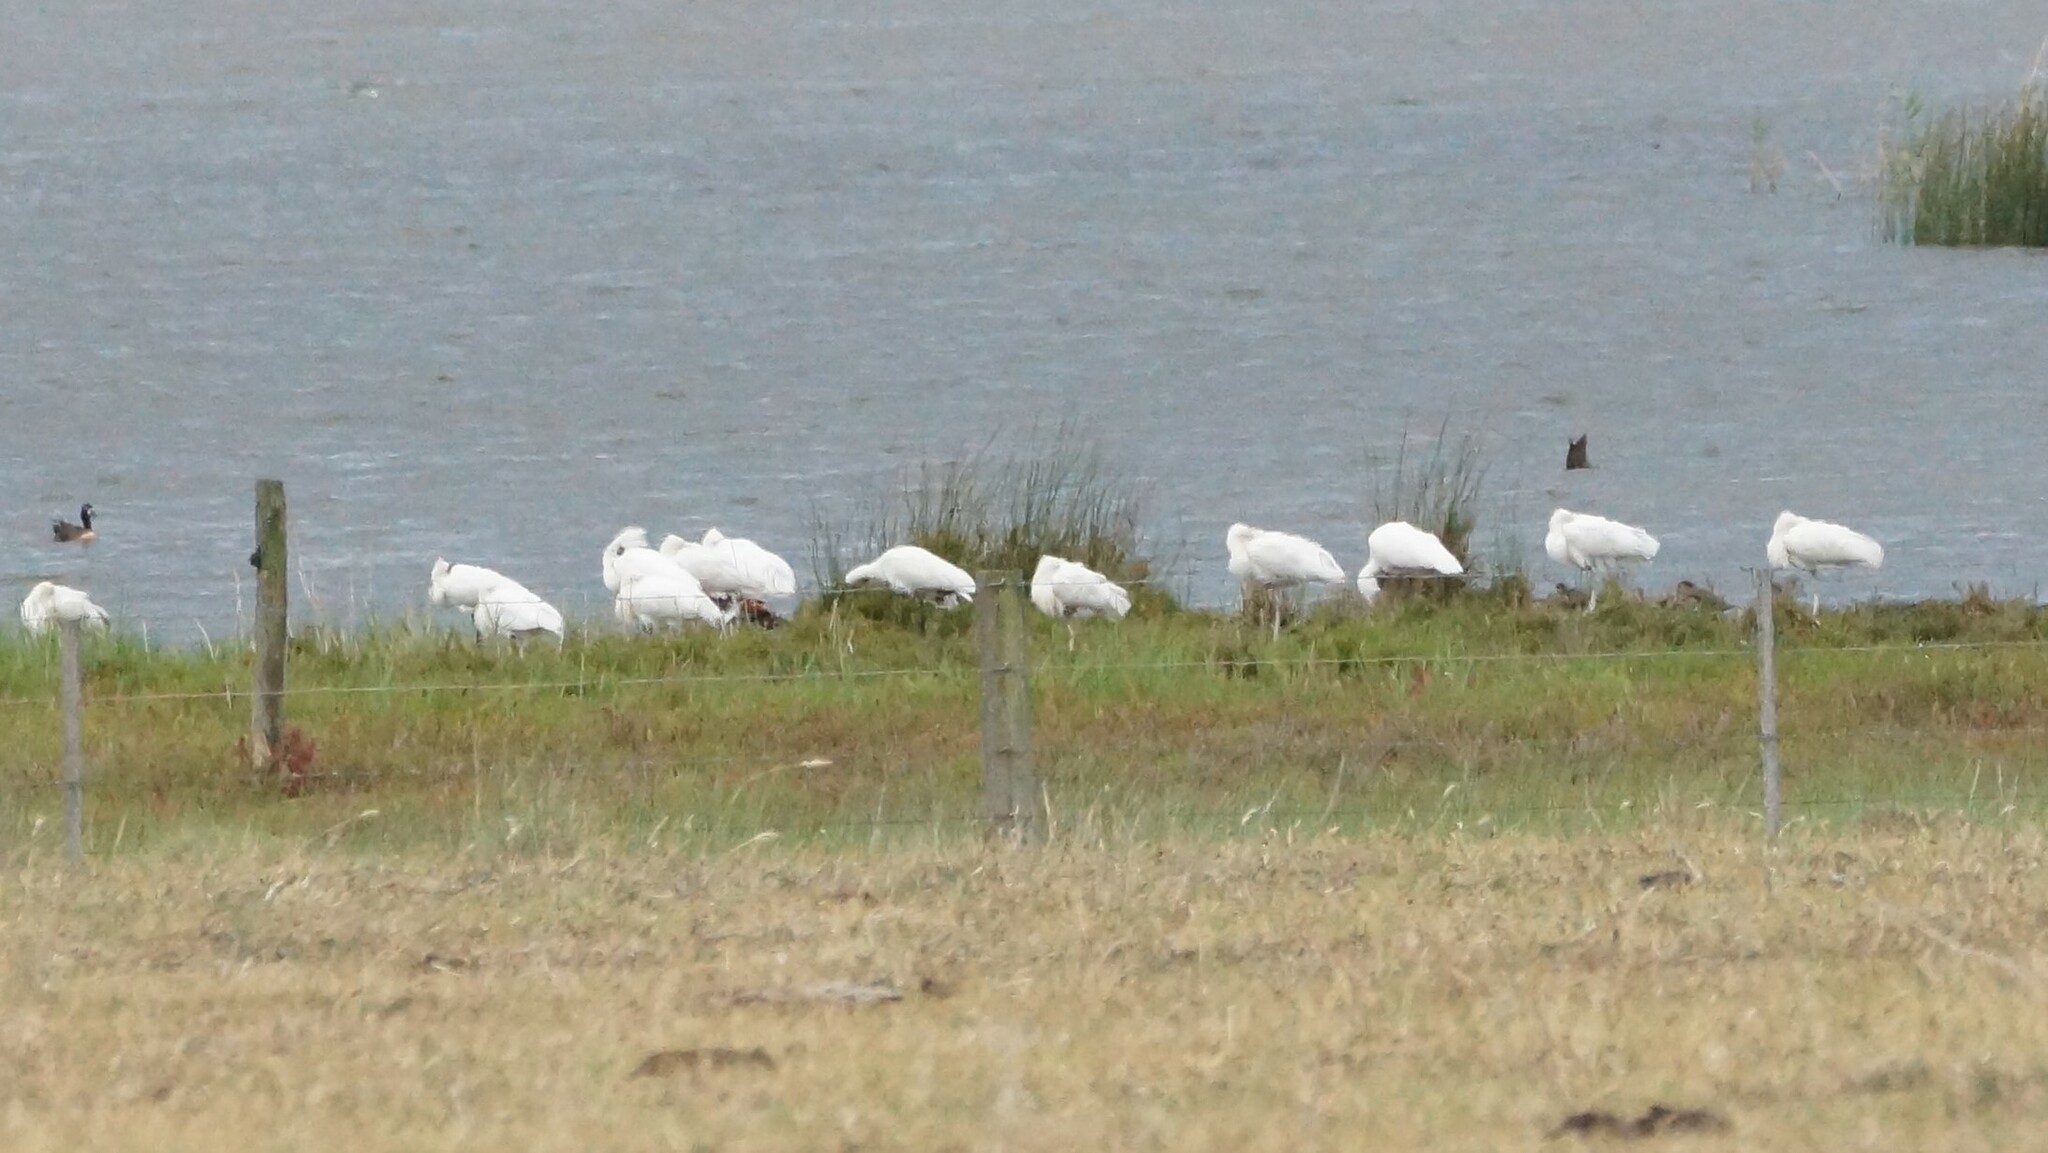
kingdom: Animalia
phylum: Chordata
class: Aves
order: Pelecaniformes
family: Threskiornithidae
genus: Platalea
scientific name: Platalea regia
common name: Royal spoonbill
